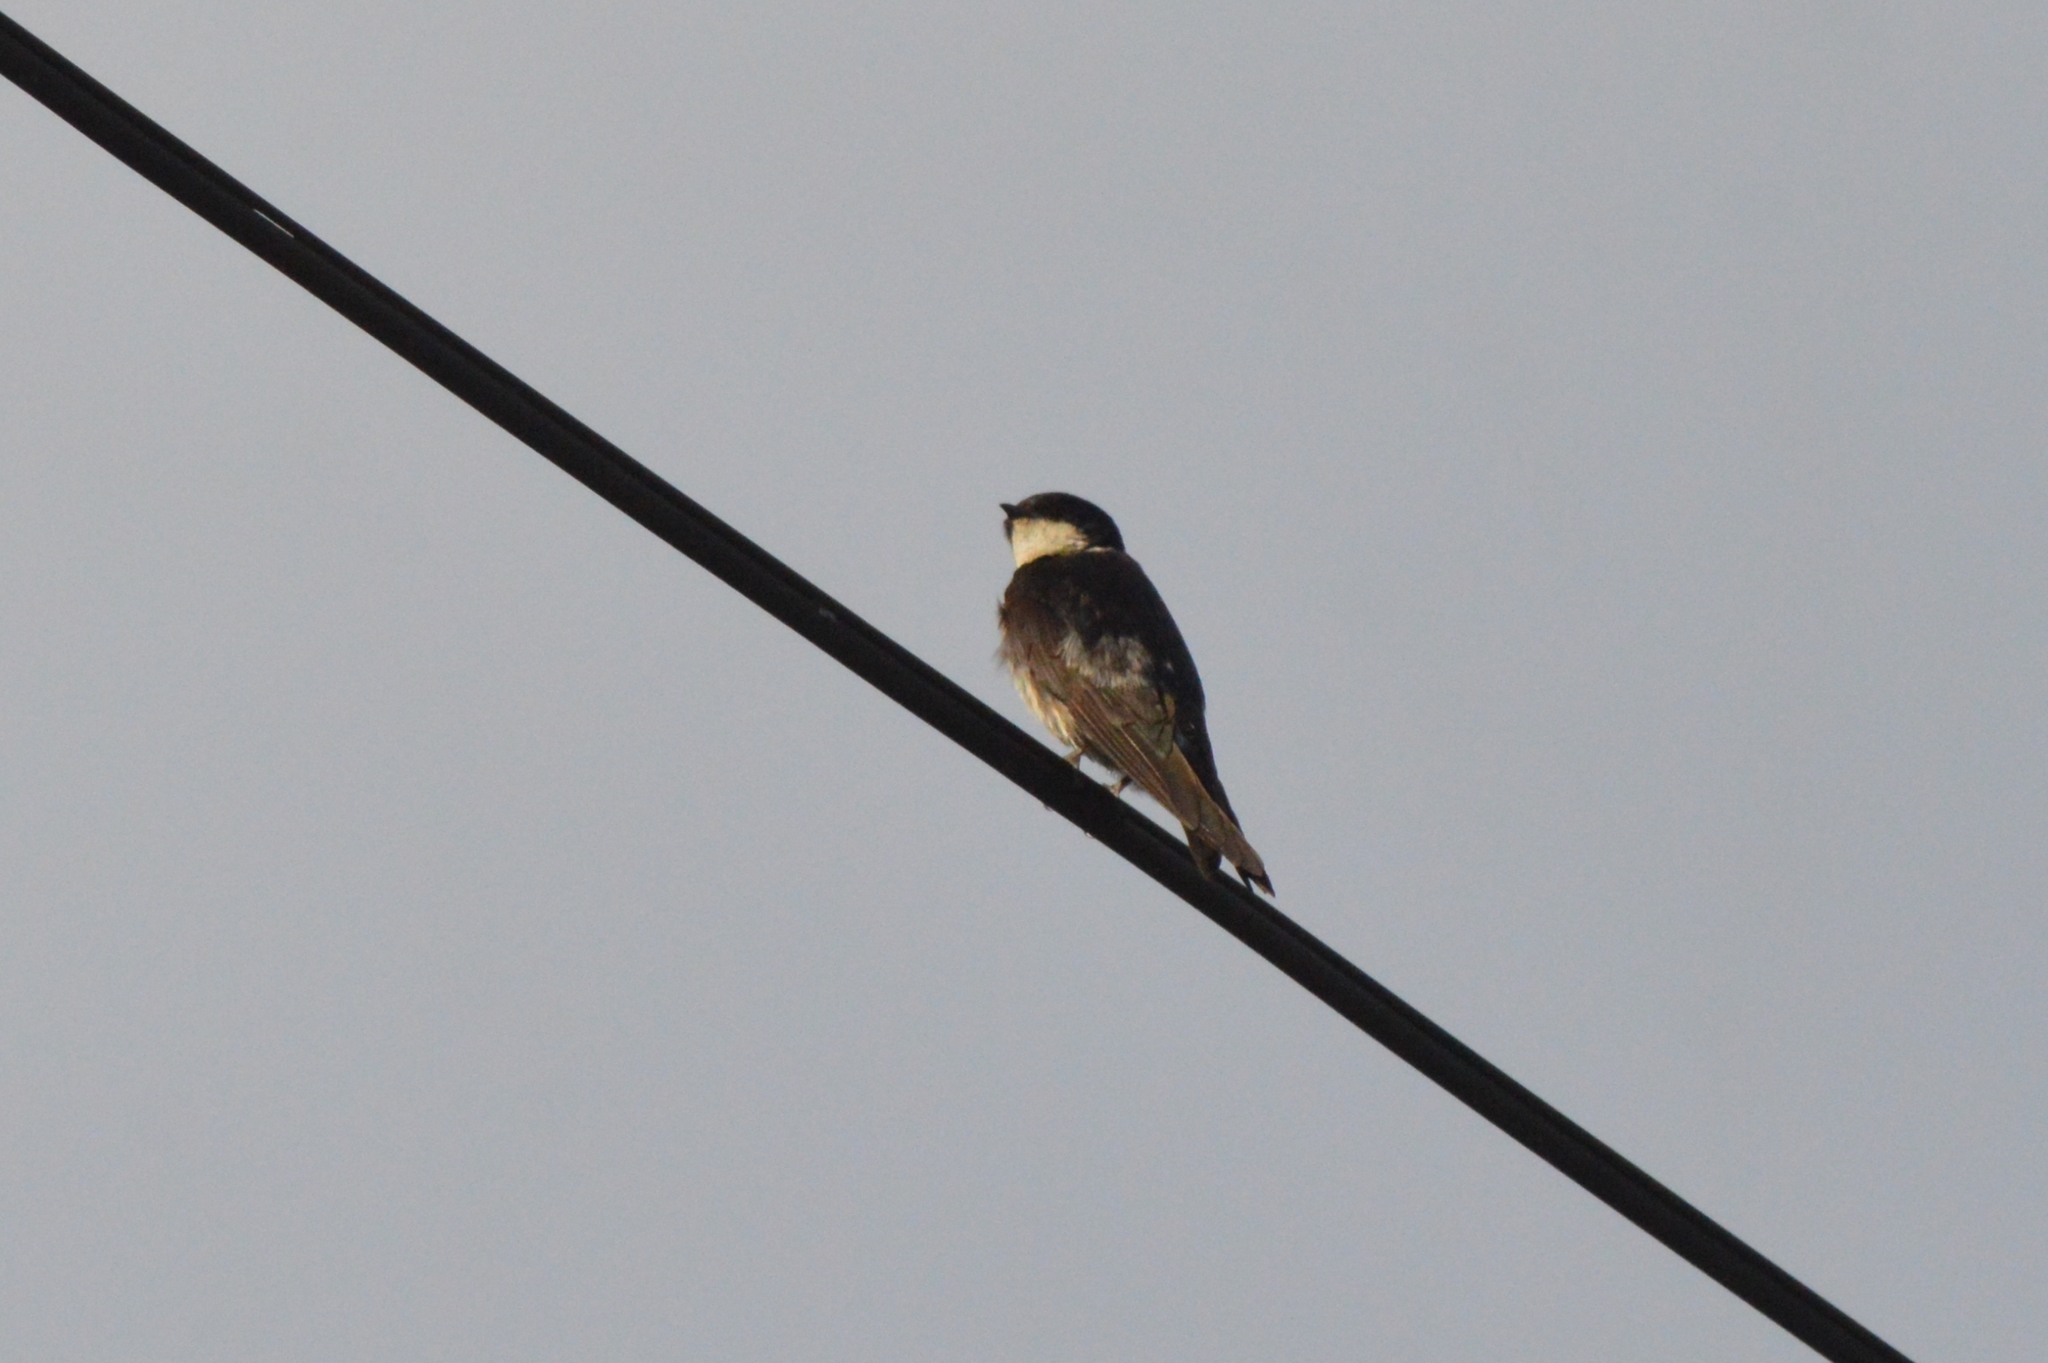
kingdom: Animalia
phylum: Chordata
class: Aves
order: Passeriformes
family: Hirundinidae
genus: Notiochelidon
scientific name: Notiochelidon cyanoleuca
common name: Blue-and-white swallow
